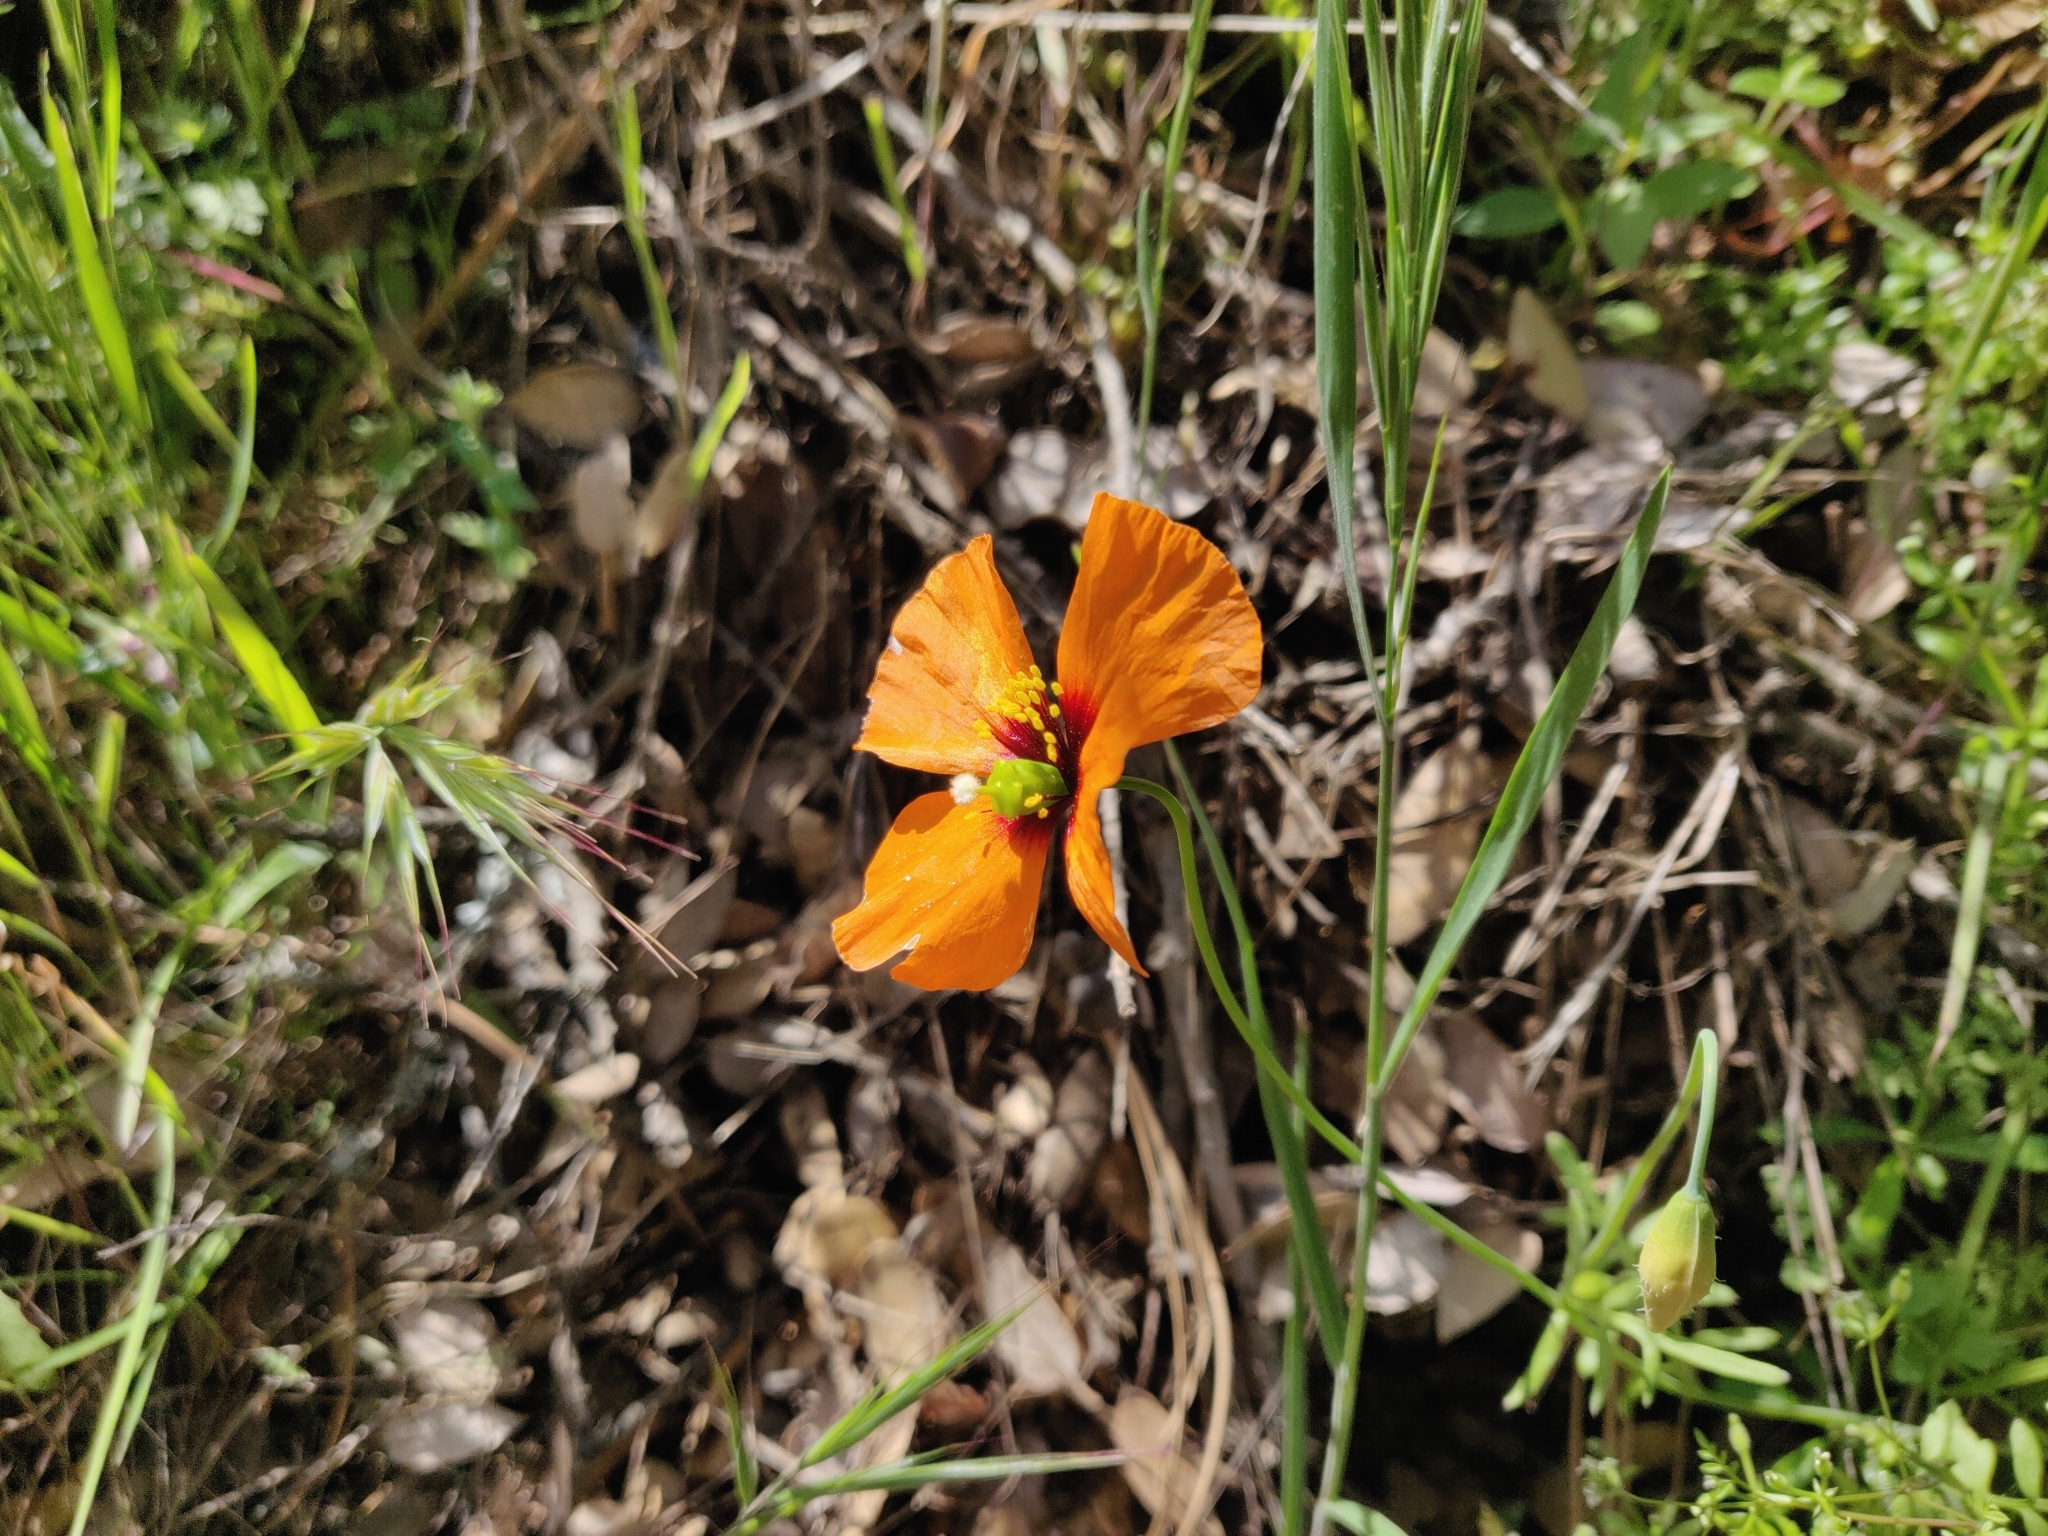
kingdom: Plantae
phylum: Tracheophyta
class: Magnoliopsida
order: Ranunculales
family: Papaveraceae
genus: Stylomecon
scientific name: Stylomecon heterophylla
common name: Flaming-poppy
